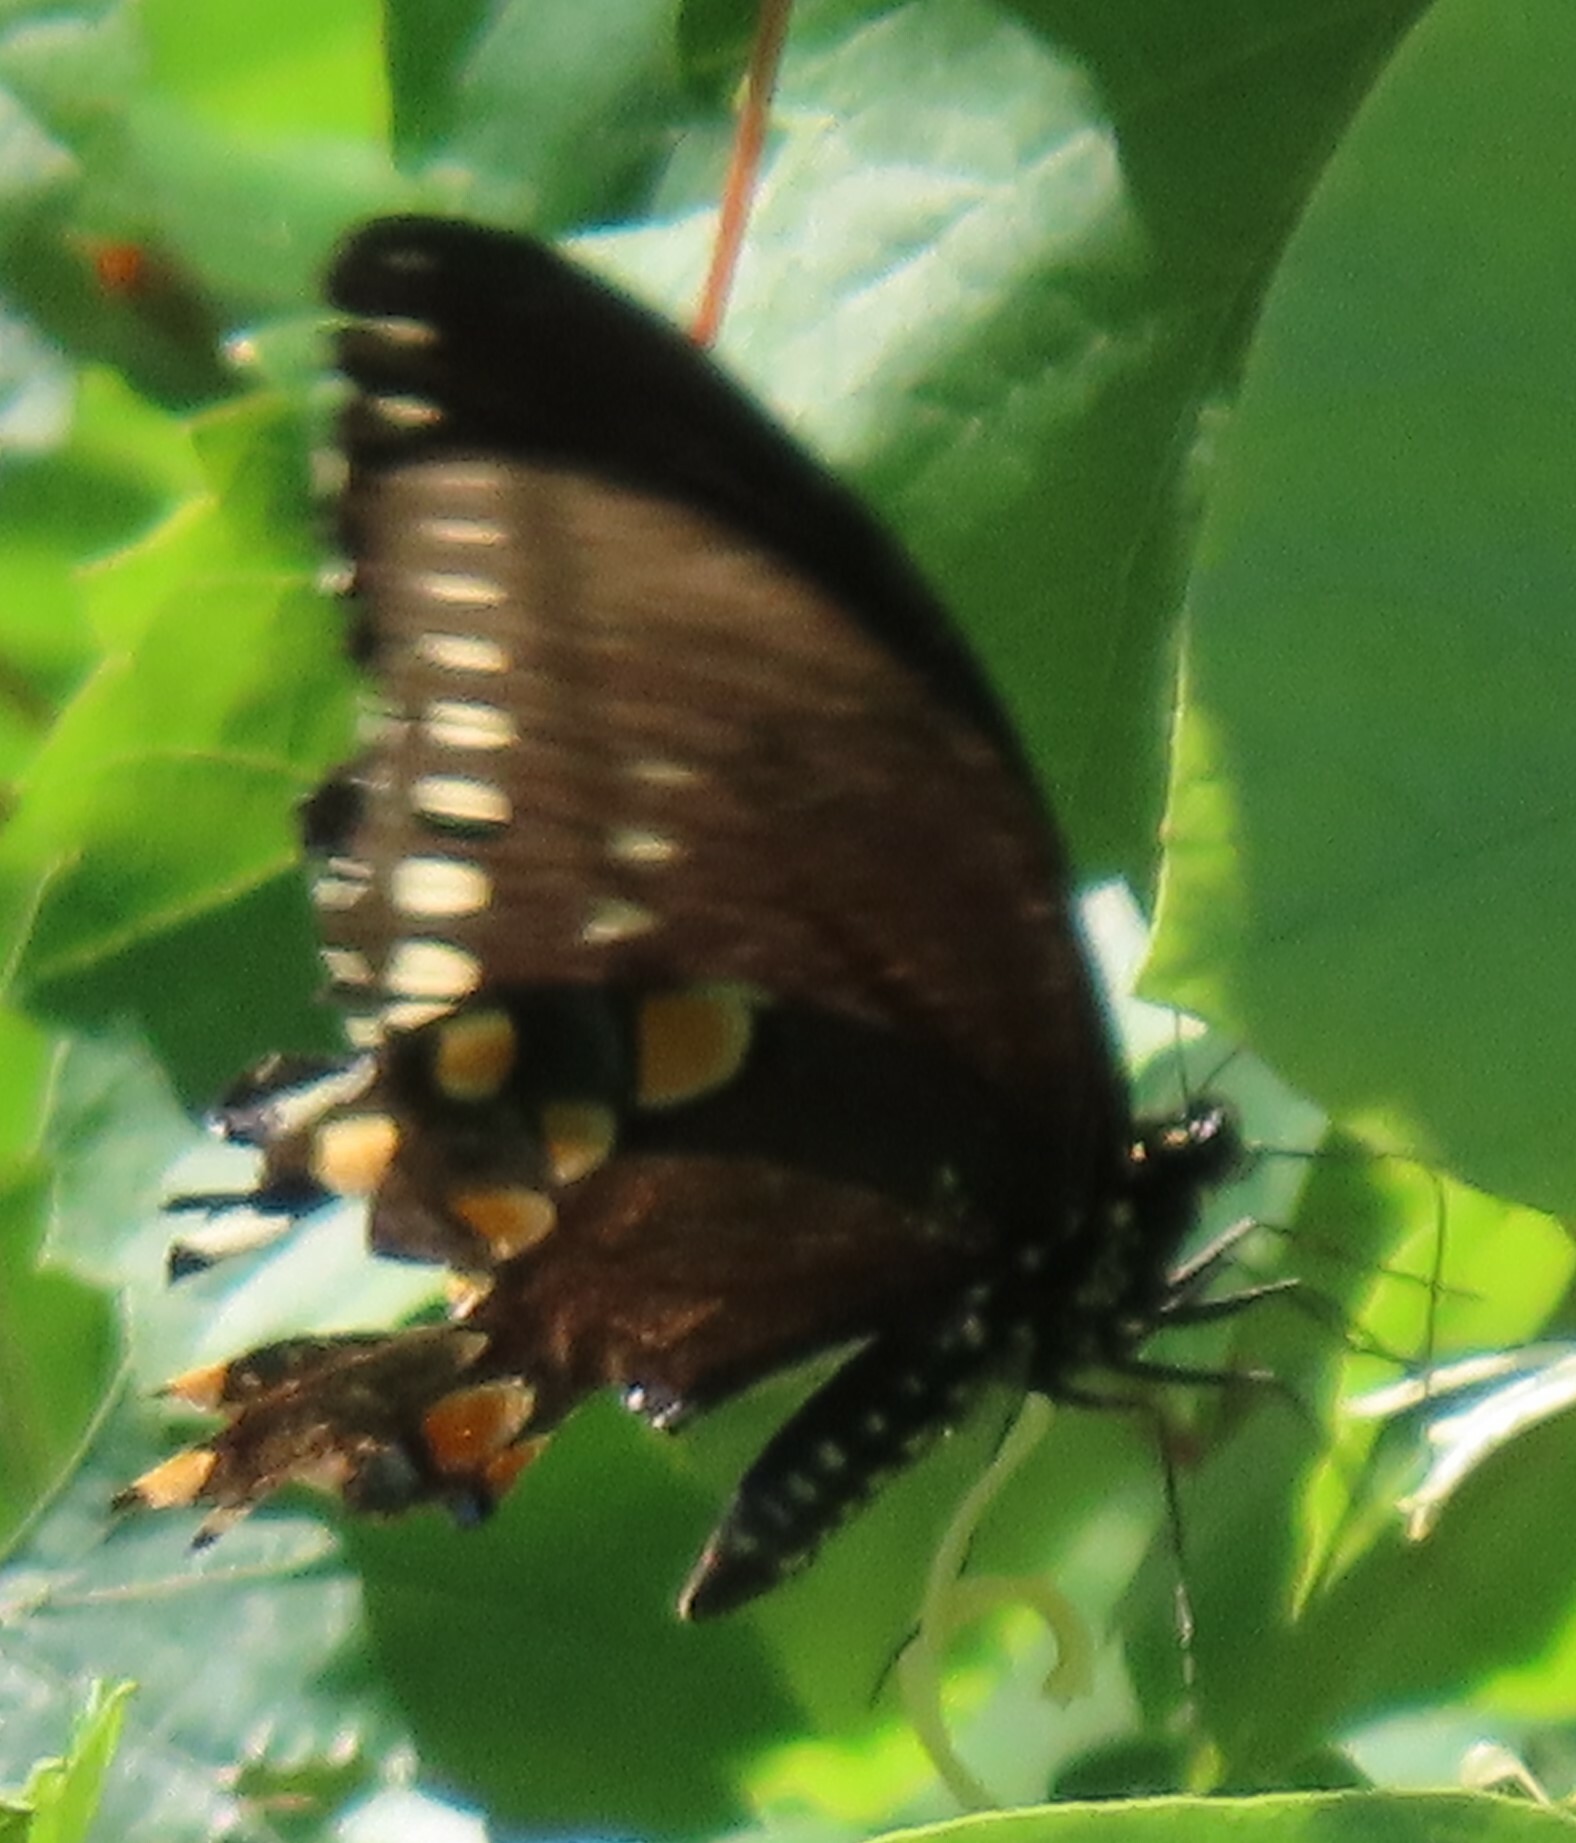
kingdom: Animalia
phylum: Arthropoda
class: Insecta
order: Lepidoptera
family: Papilionidae
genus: Papilio
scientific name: Papilio troilus
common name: Spicebush swallowtail
